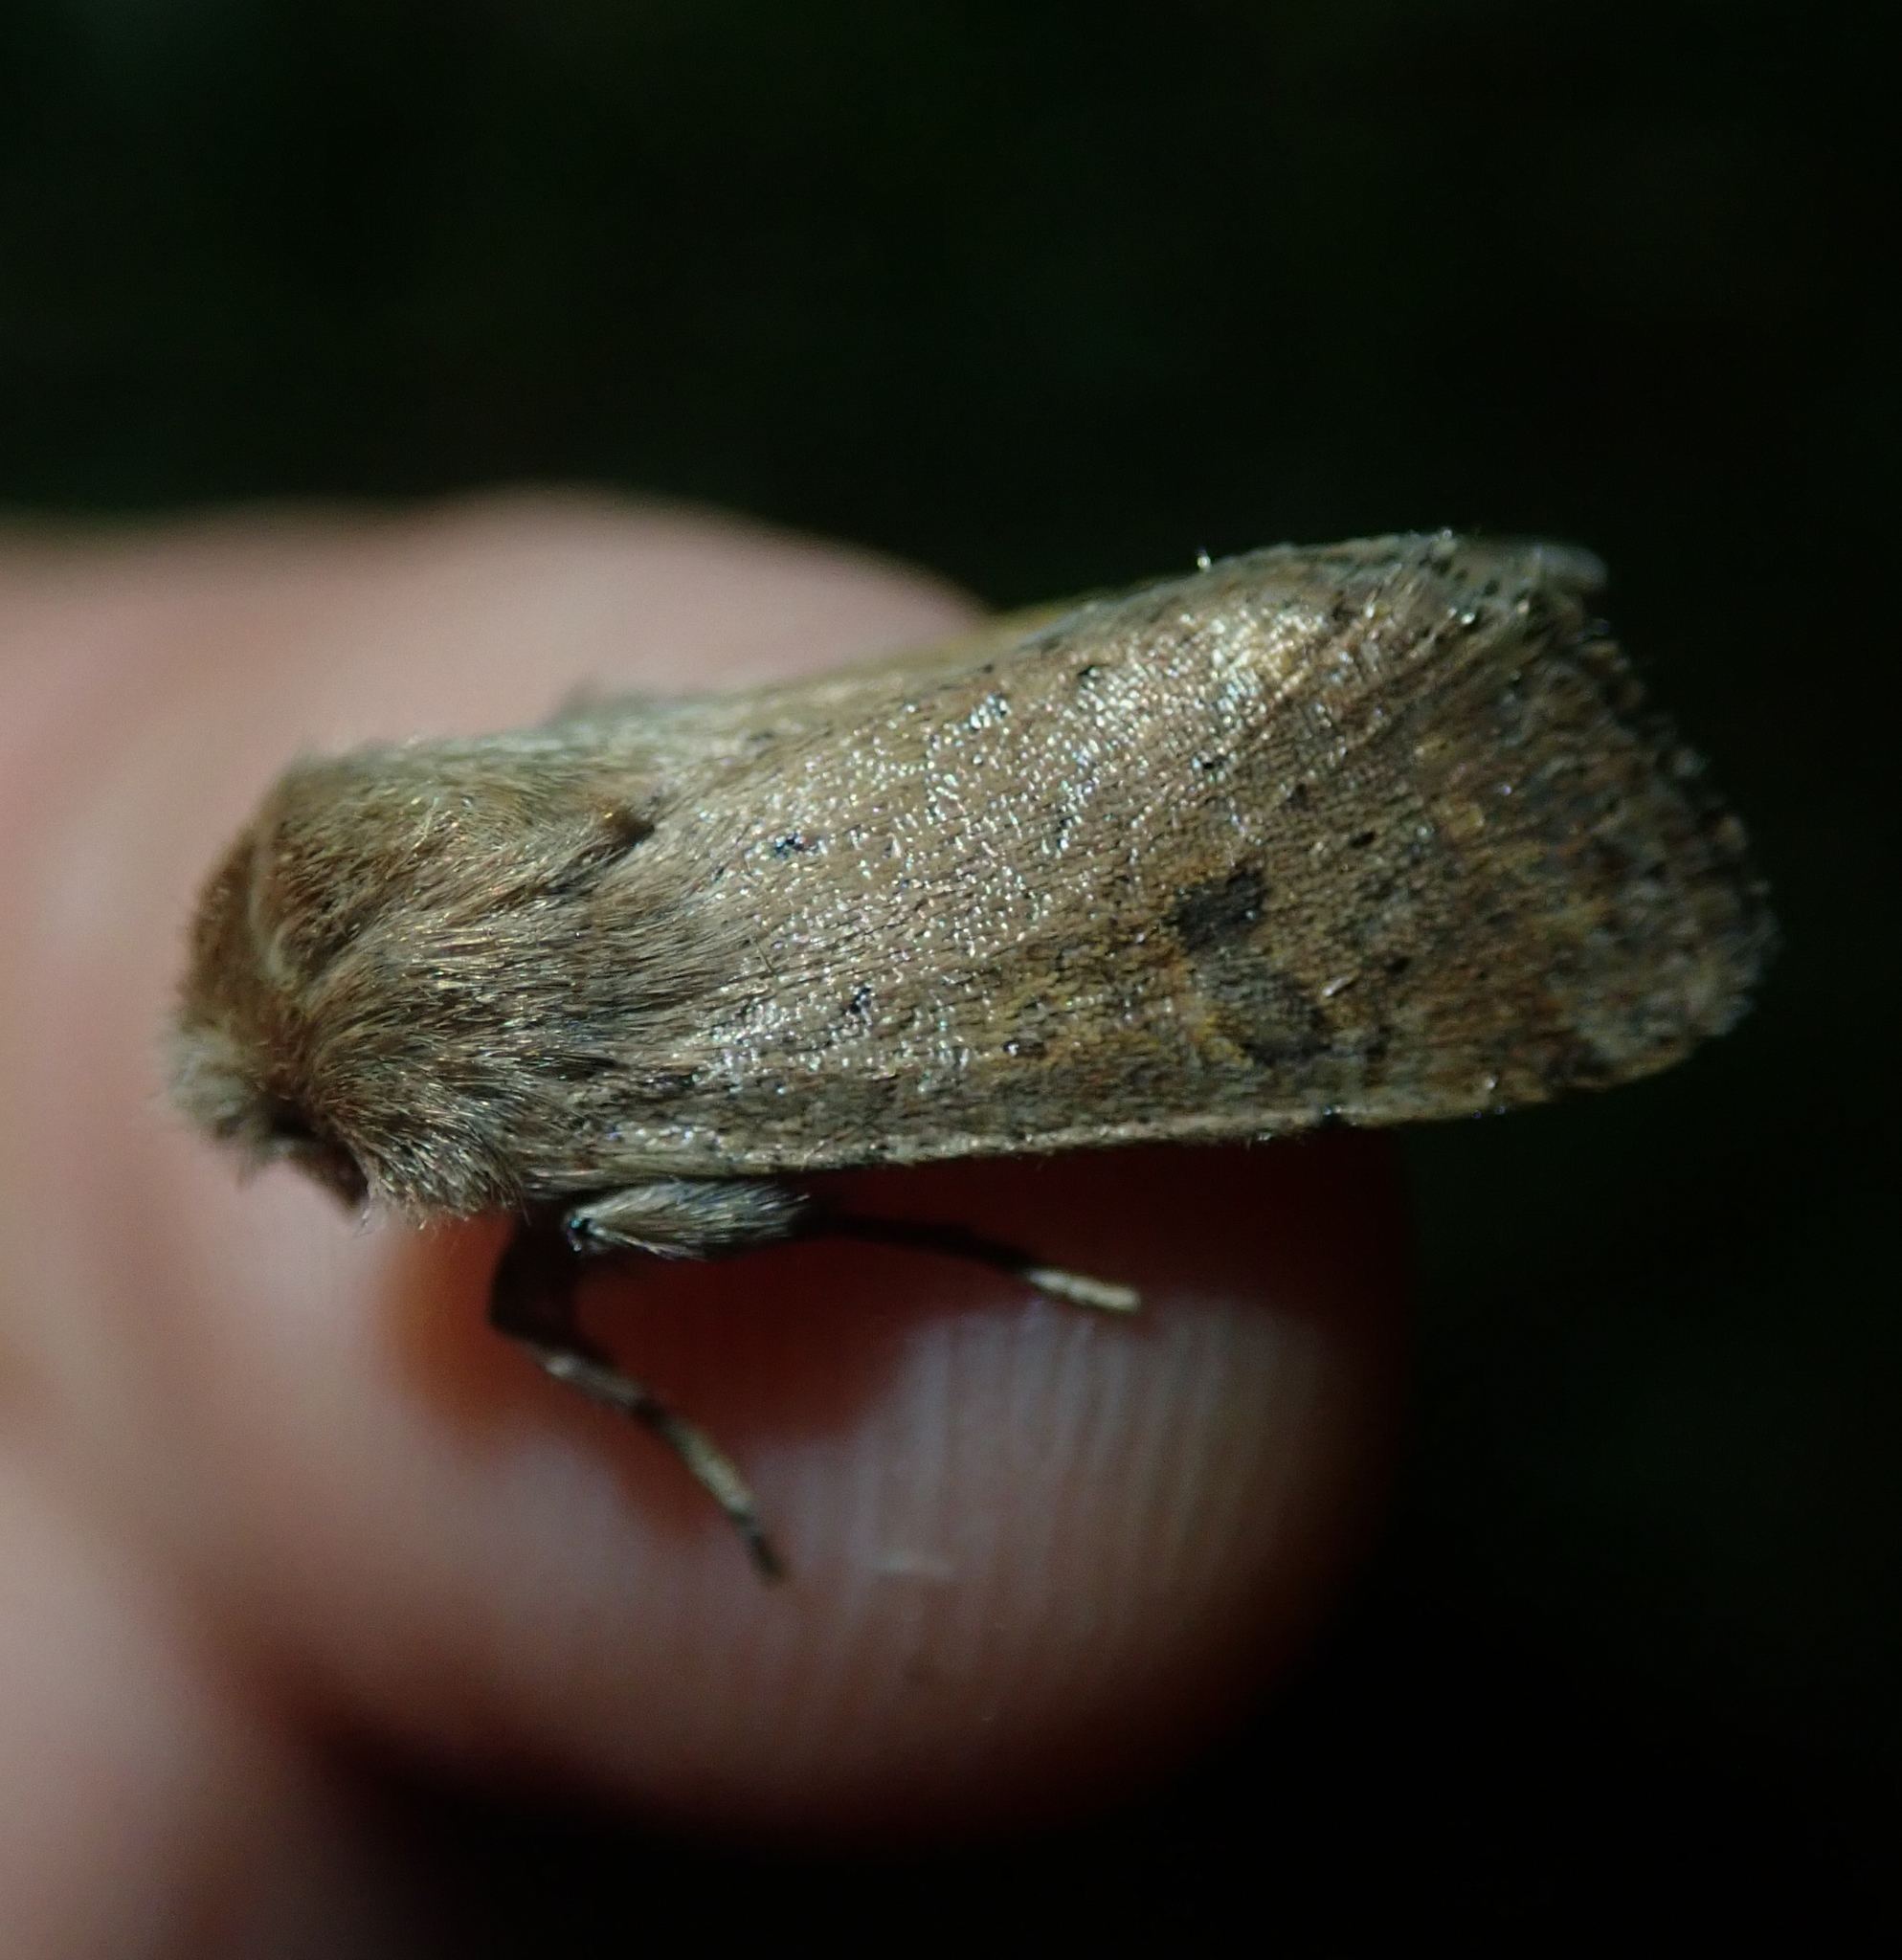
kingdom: Animalia
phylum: Arthropoda
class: Insecta
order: Lepidoptera
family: Noctuidae
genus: Orthosia
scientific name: Orthosia cruda
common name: Small quaker
